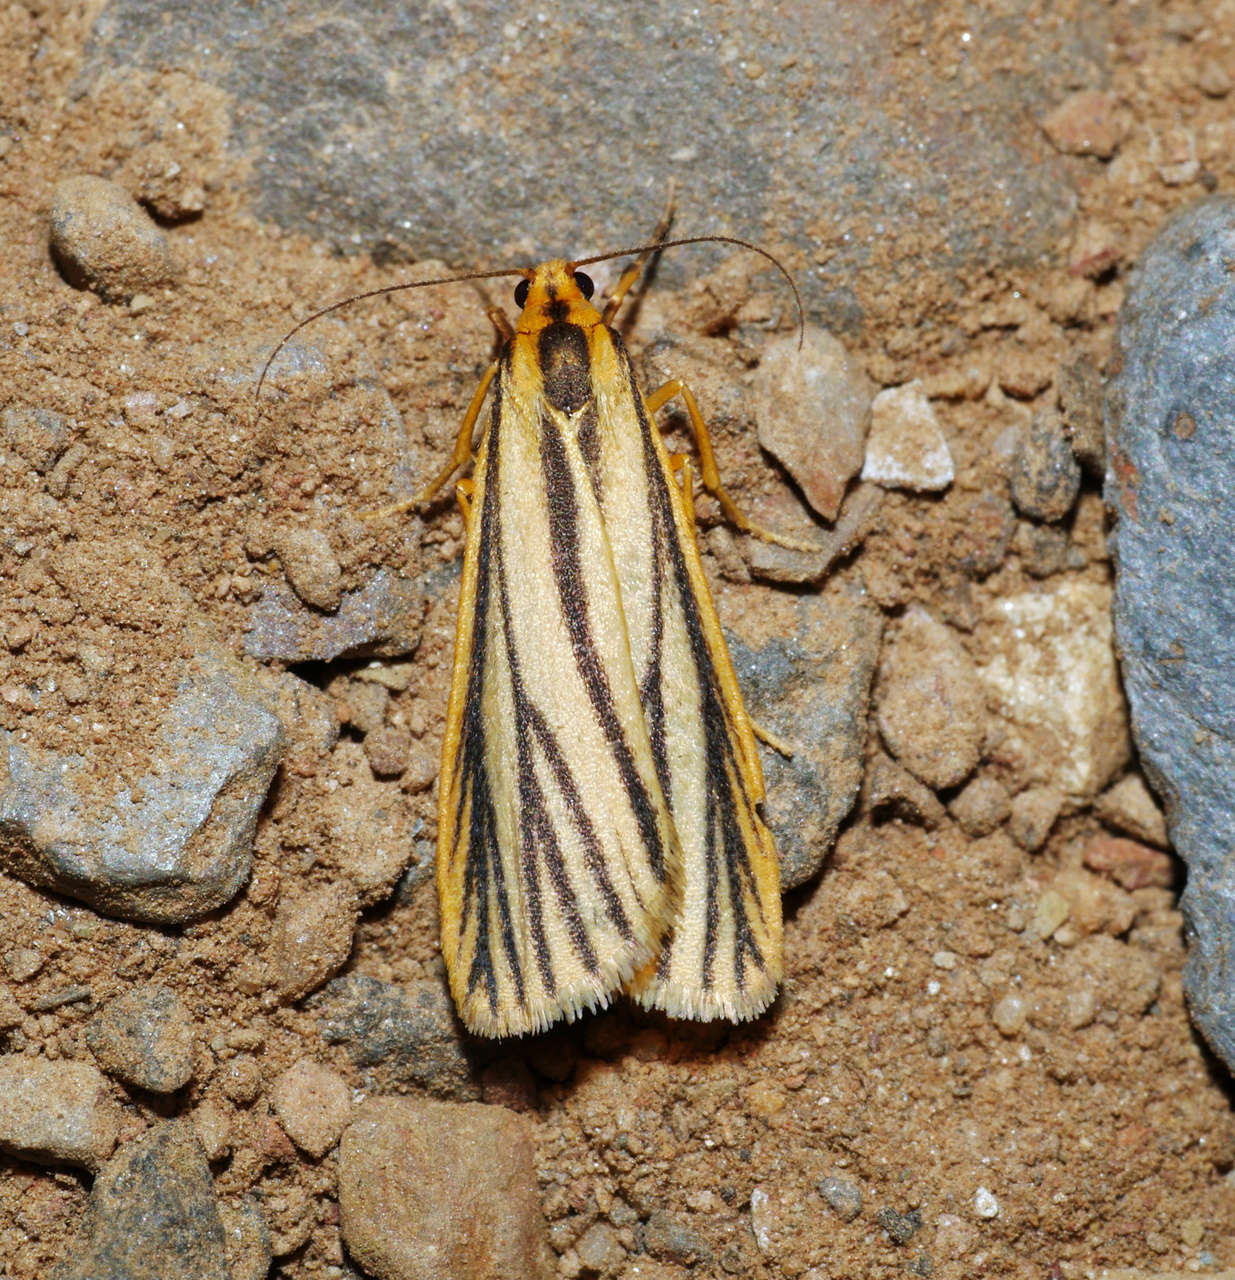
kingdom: Animalia
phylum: Arthropoda
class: Insecta
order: Lepidoptera
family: Erebidae
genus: Phaeophlebosia
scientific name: Phaeophlebosia furcifera
